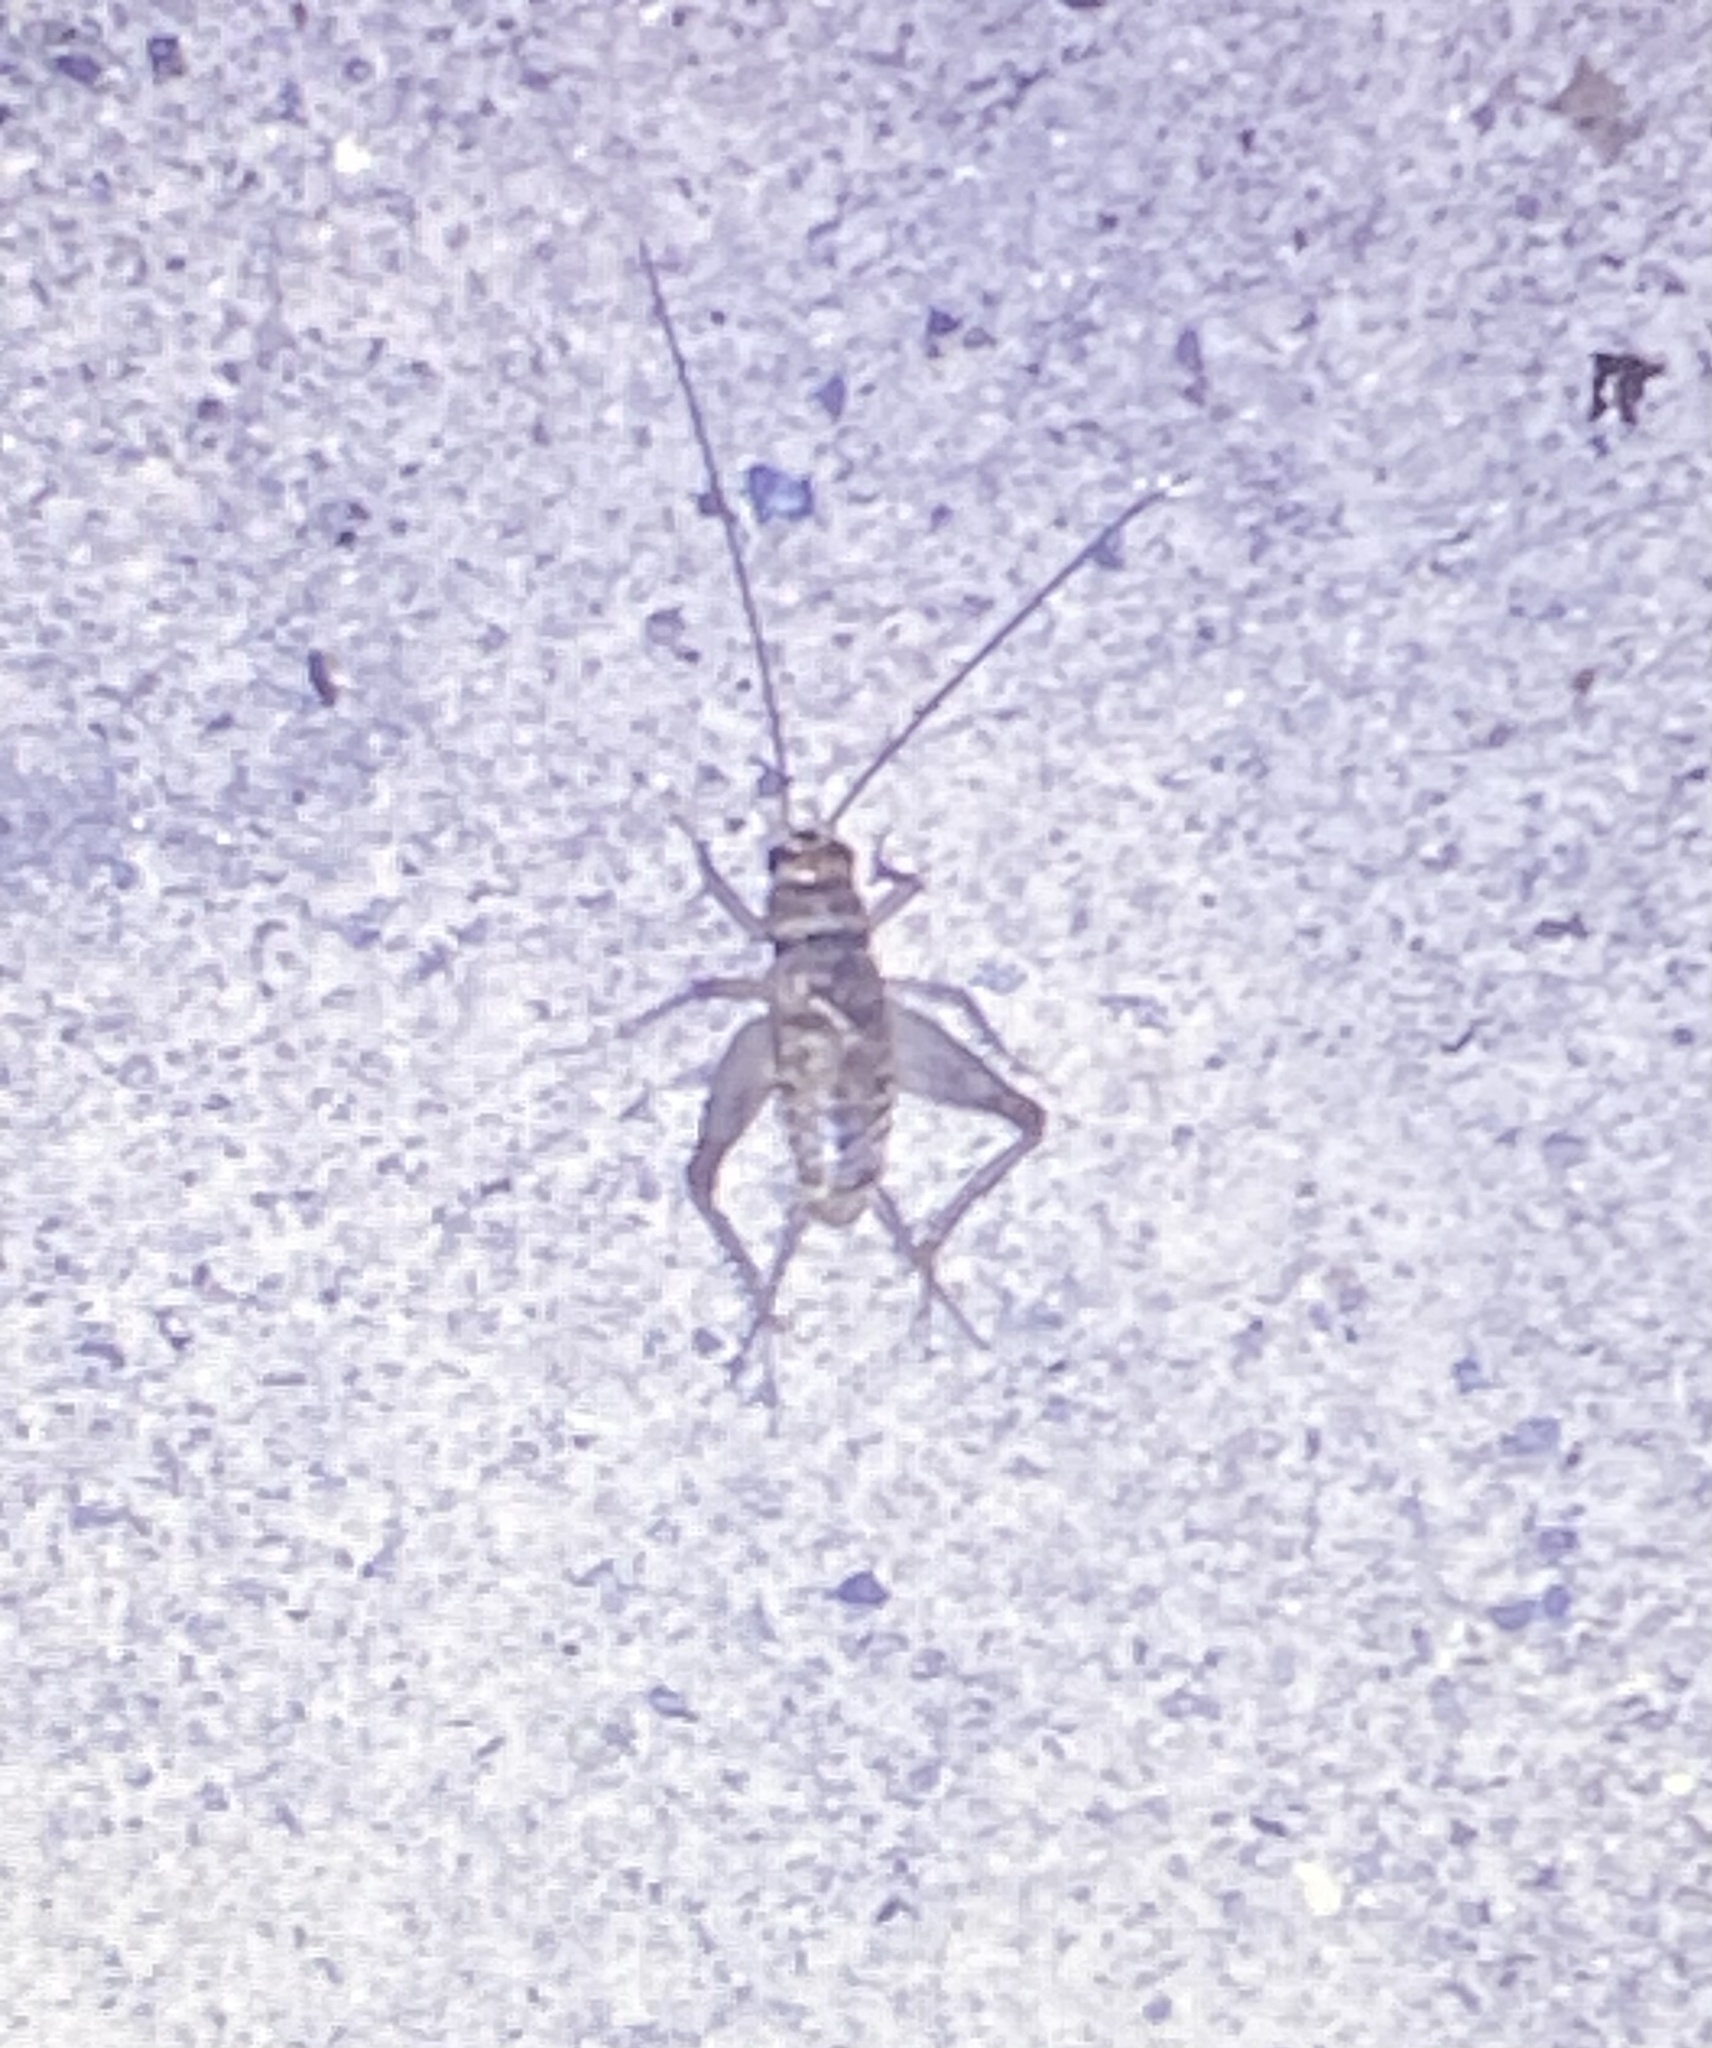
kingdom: Animalia
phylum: Arthropoda
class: Insecta
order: Orthoptera
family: Gryllidae
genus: Gryllodes
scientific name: Gryllodes sigillatus
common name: Tropical house cricket
